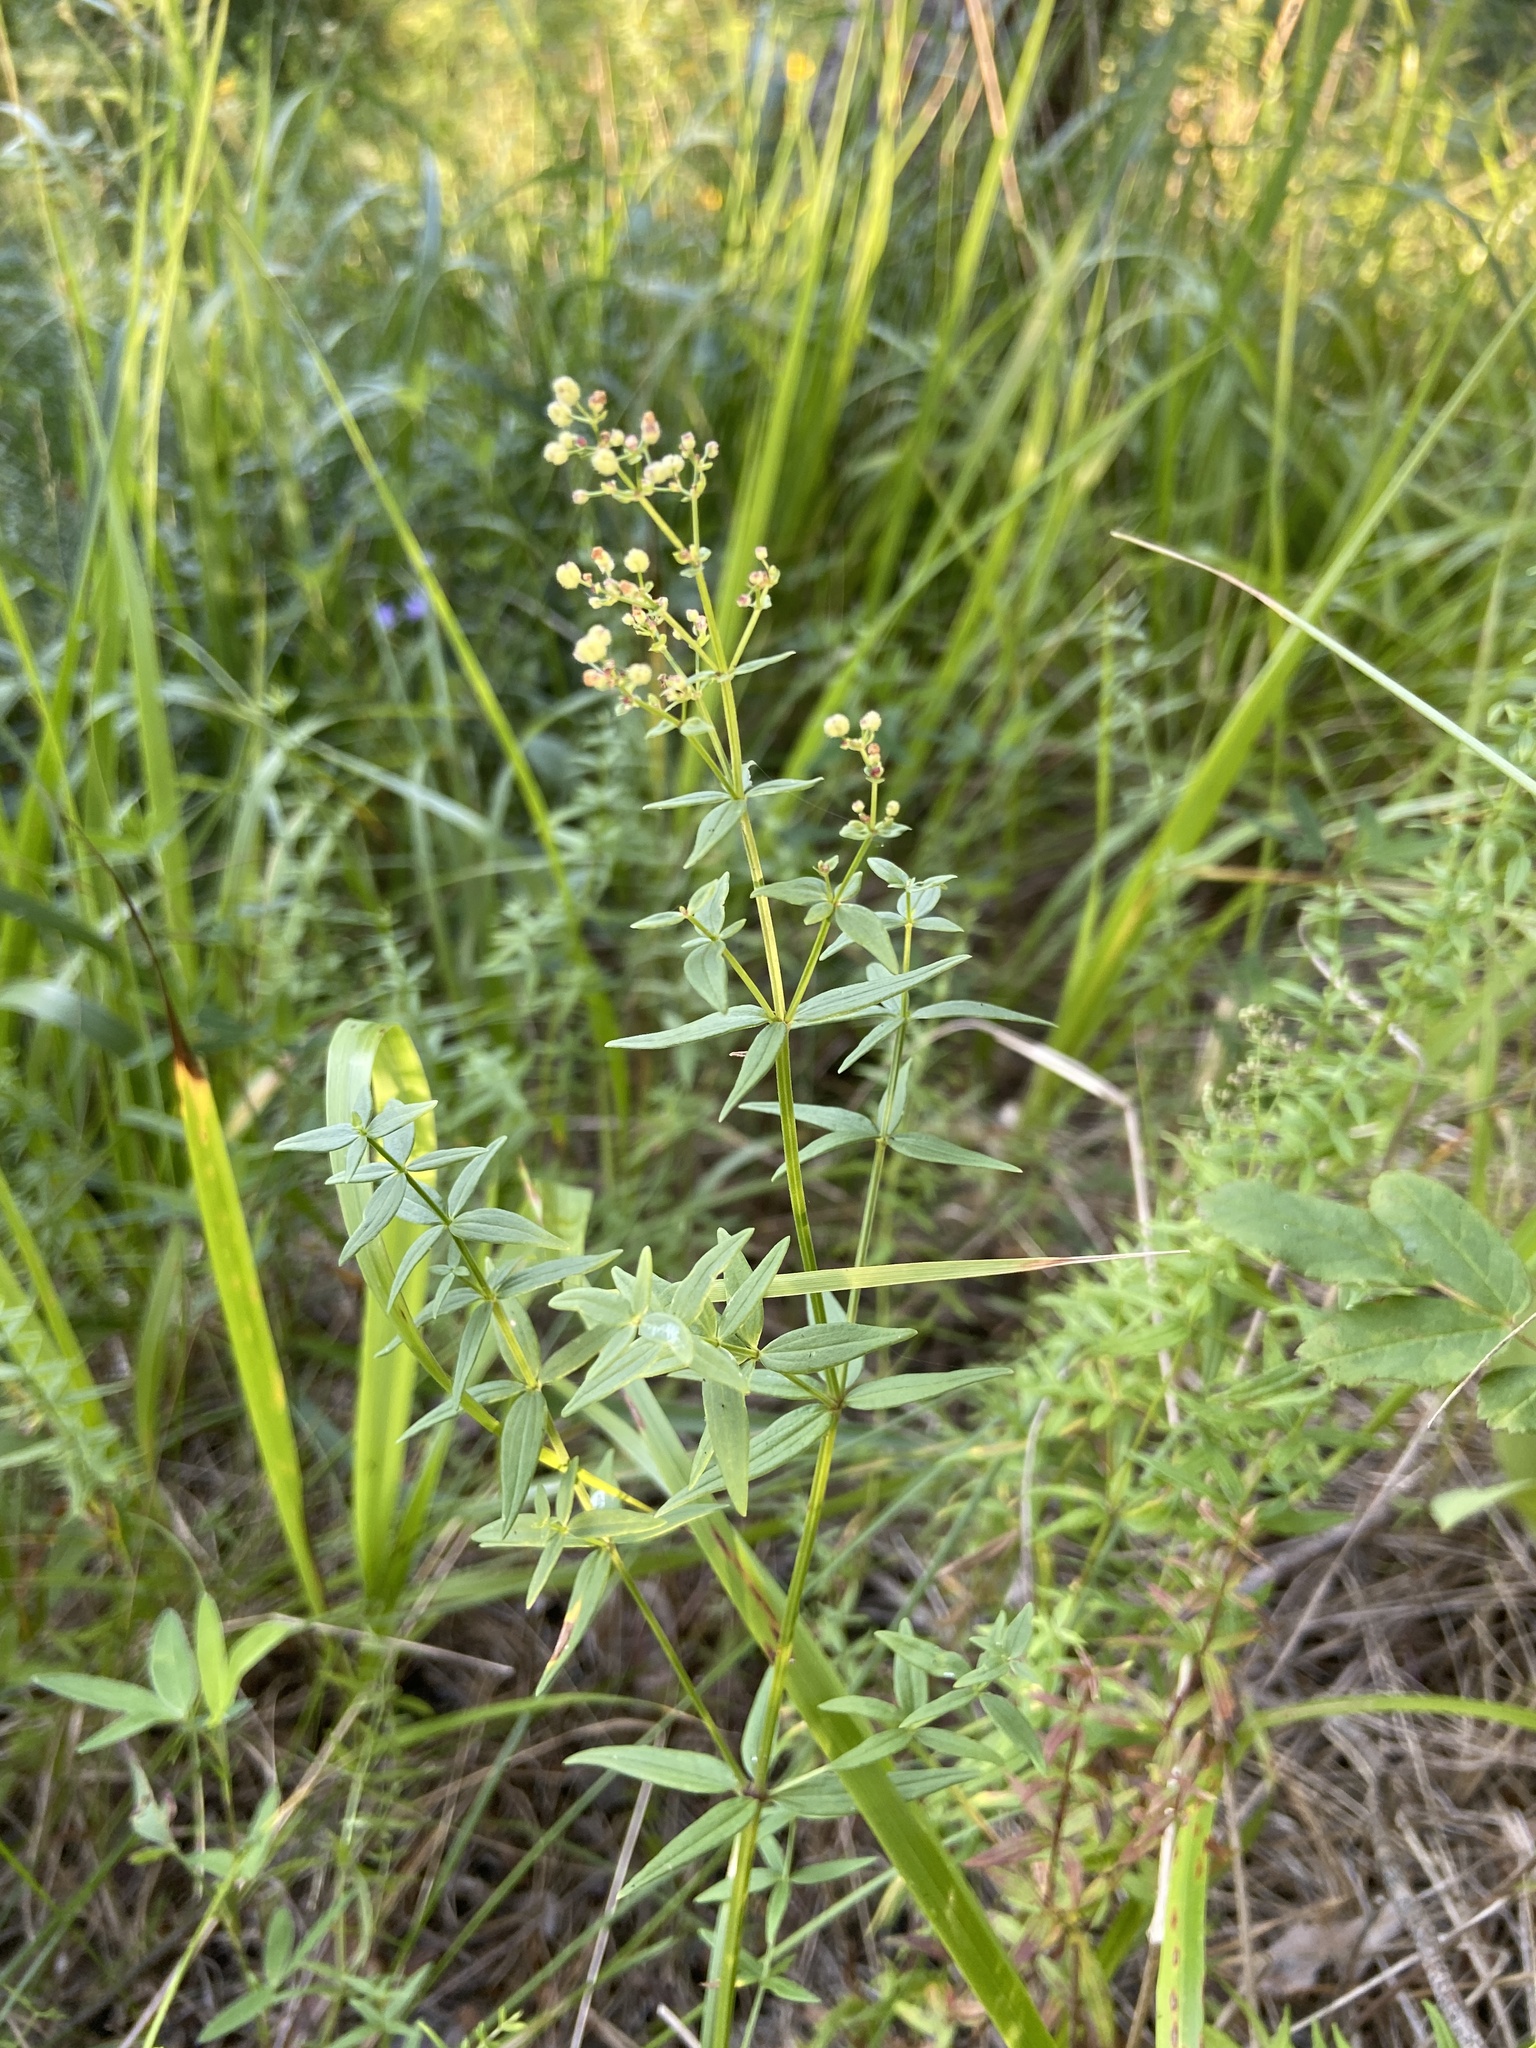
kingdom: Plantae
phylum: Tracheophyta
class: Magnoliopsida
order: Gentianales
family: Rubiaceae
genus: Galium
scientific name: Galium boreale
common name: Northern bedstraw
